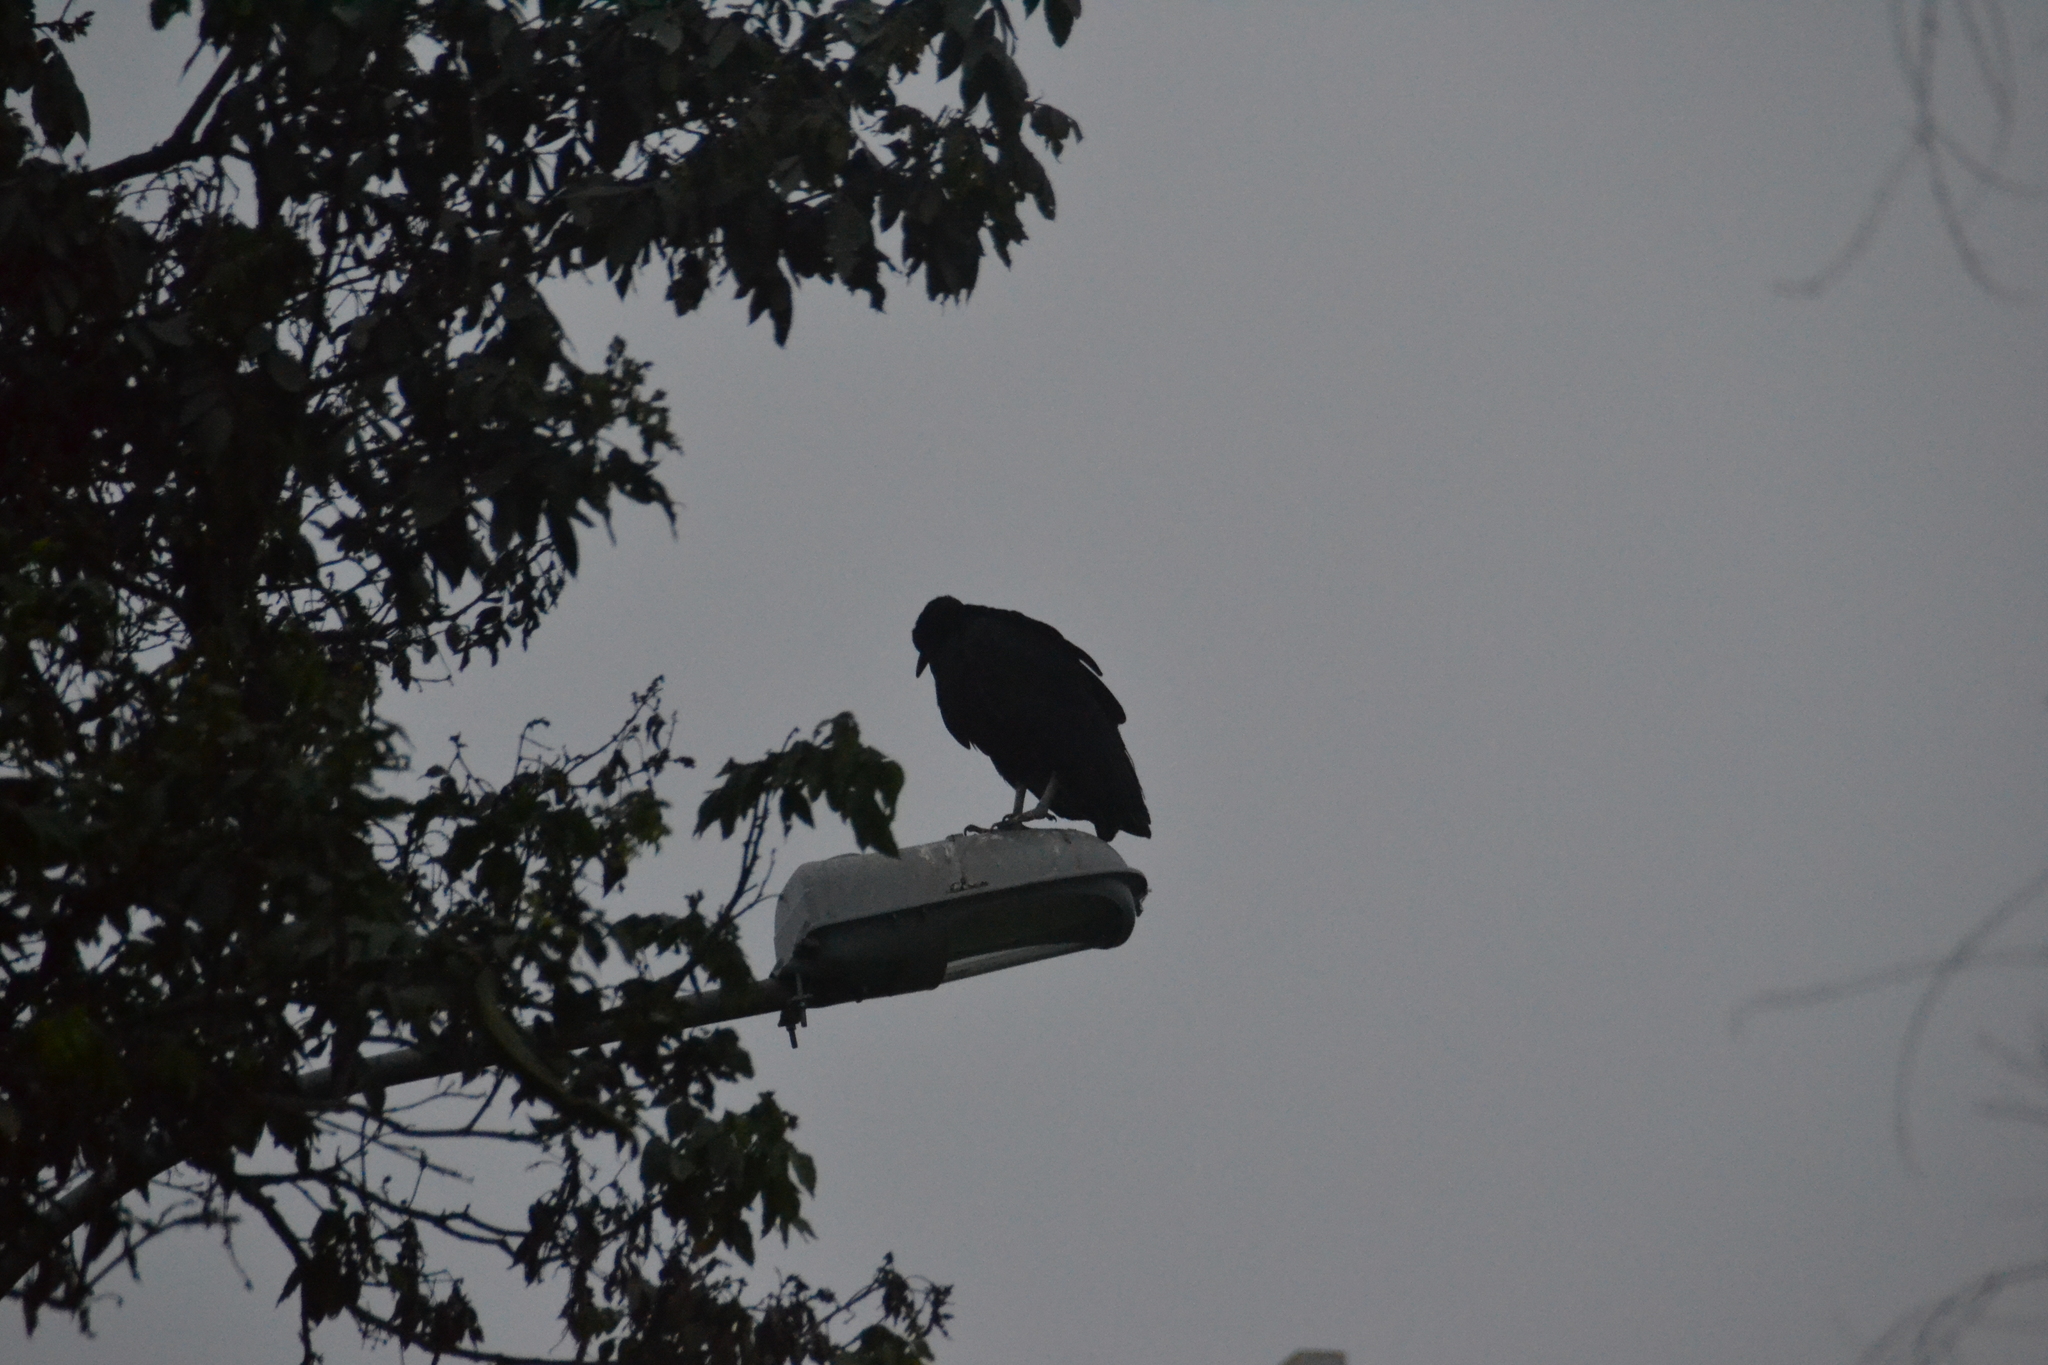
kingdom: Animalia
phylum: Chordata
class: Aves
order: Accipitriformes
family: Cathartidae
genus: Coragyps
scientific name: Coragyps atratus
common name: Black vulture
